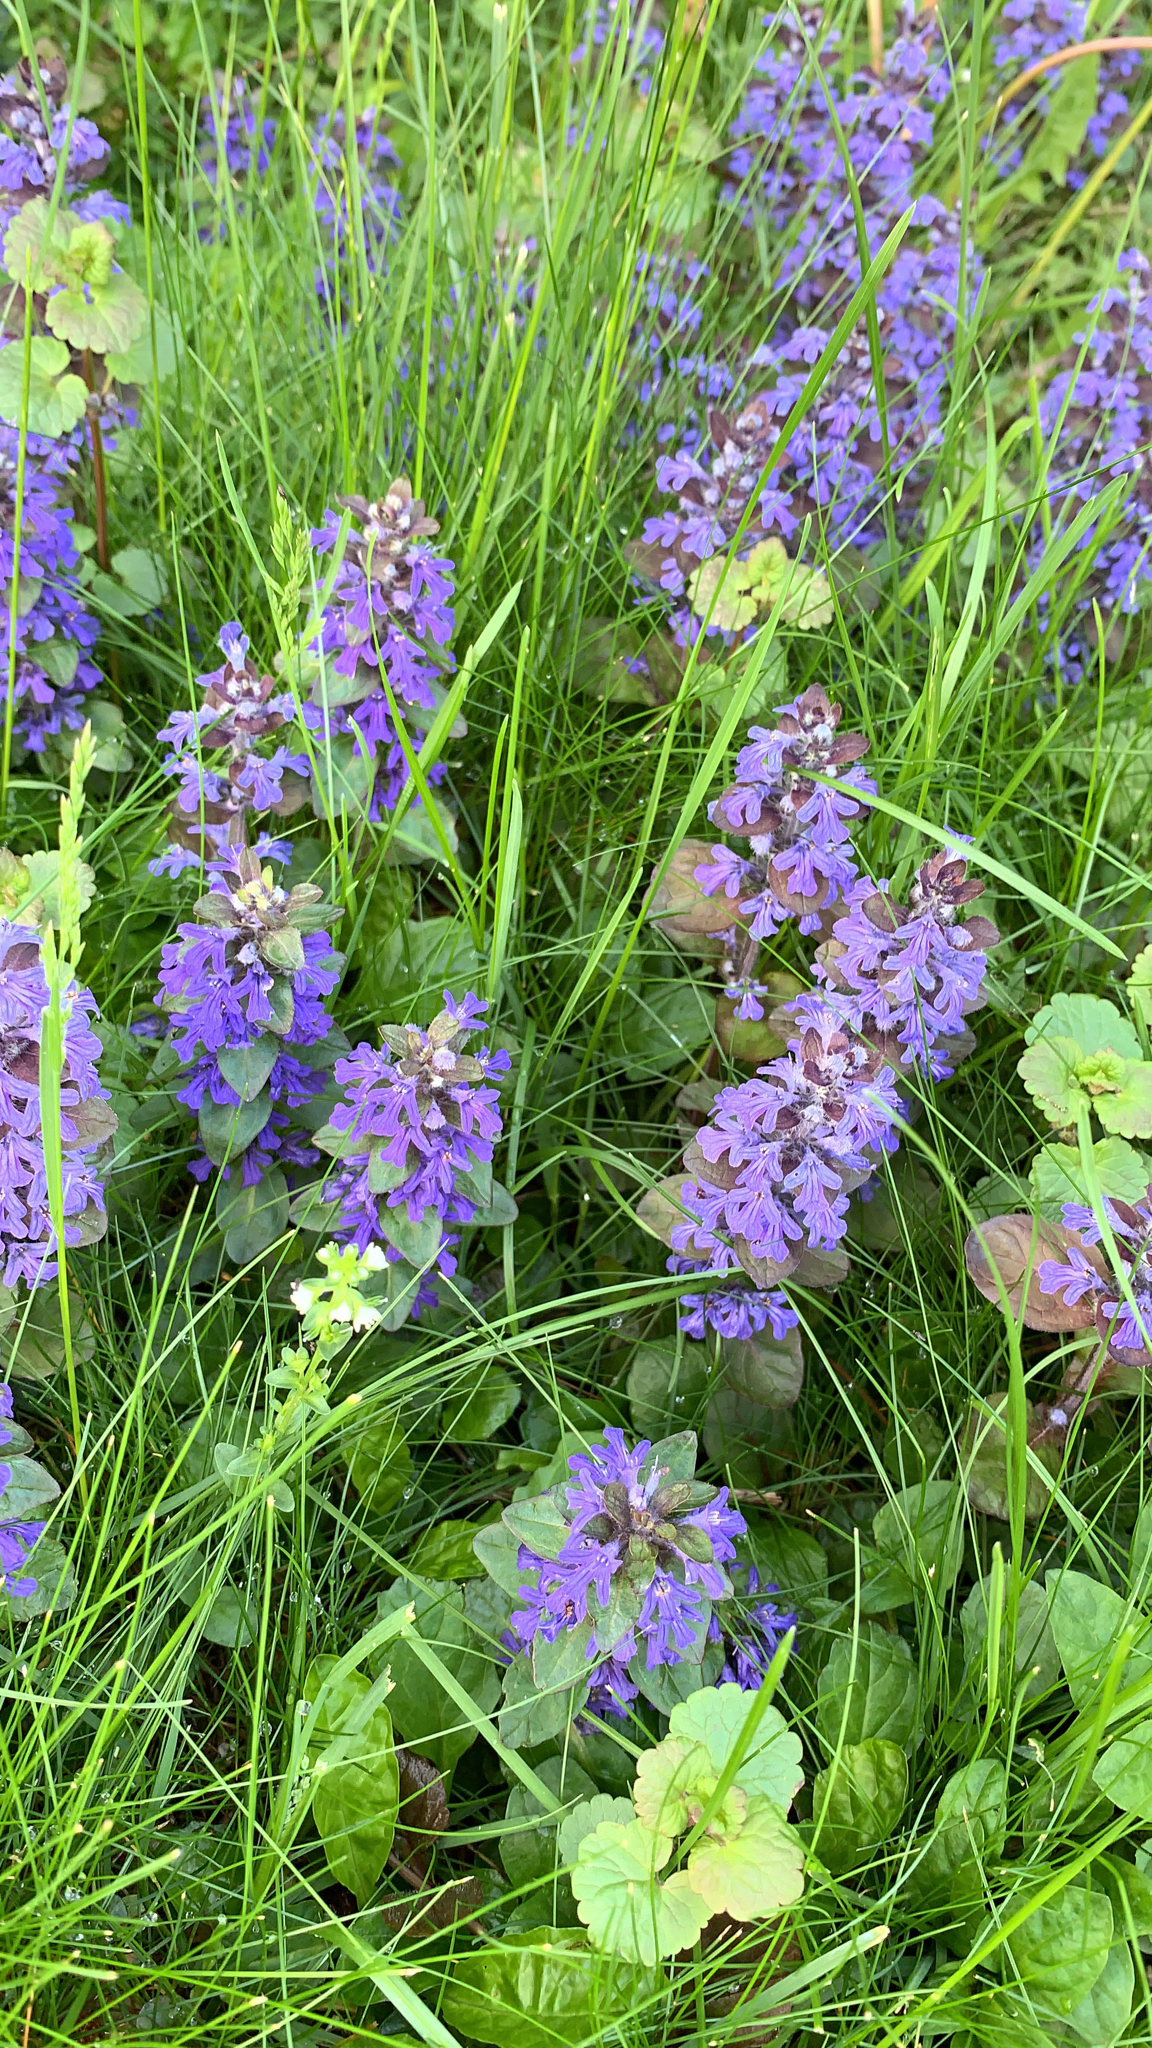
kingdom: Plantae
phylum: Tracheophyta
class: Magnoliopsida
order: Lamiales
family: Lamiaceae
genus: Ajuga
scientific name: Ajuga reptans
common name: Bugle
